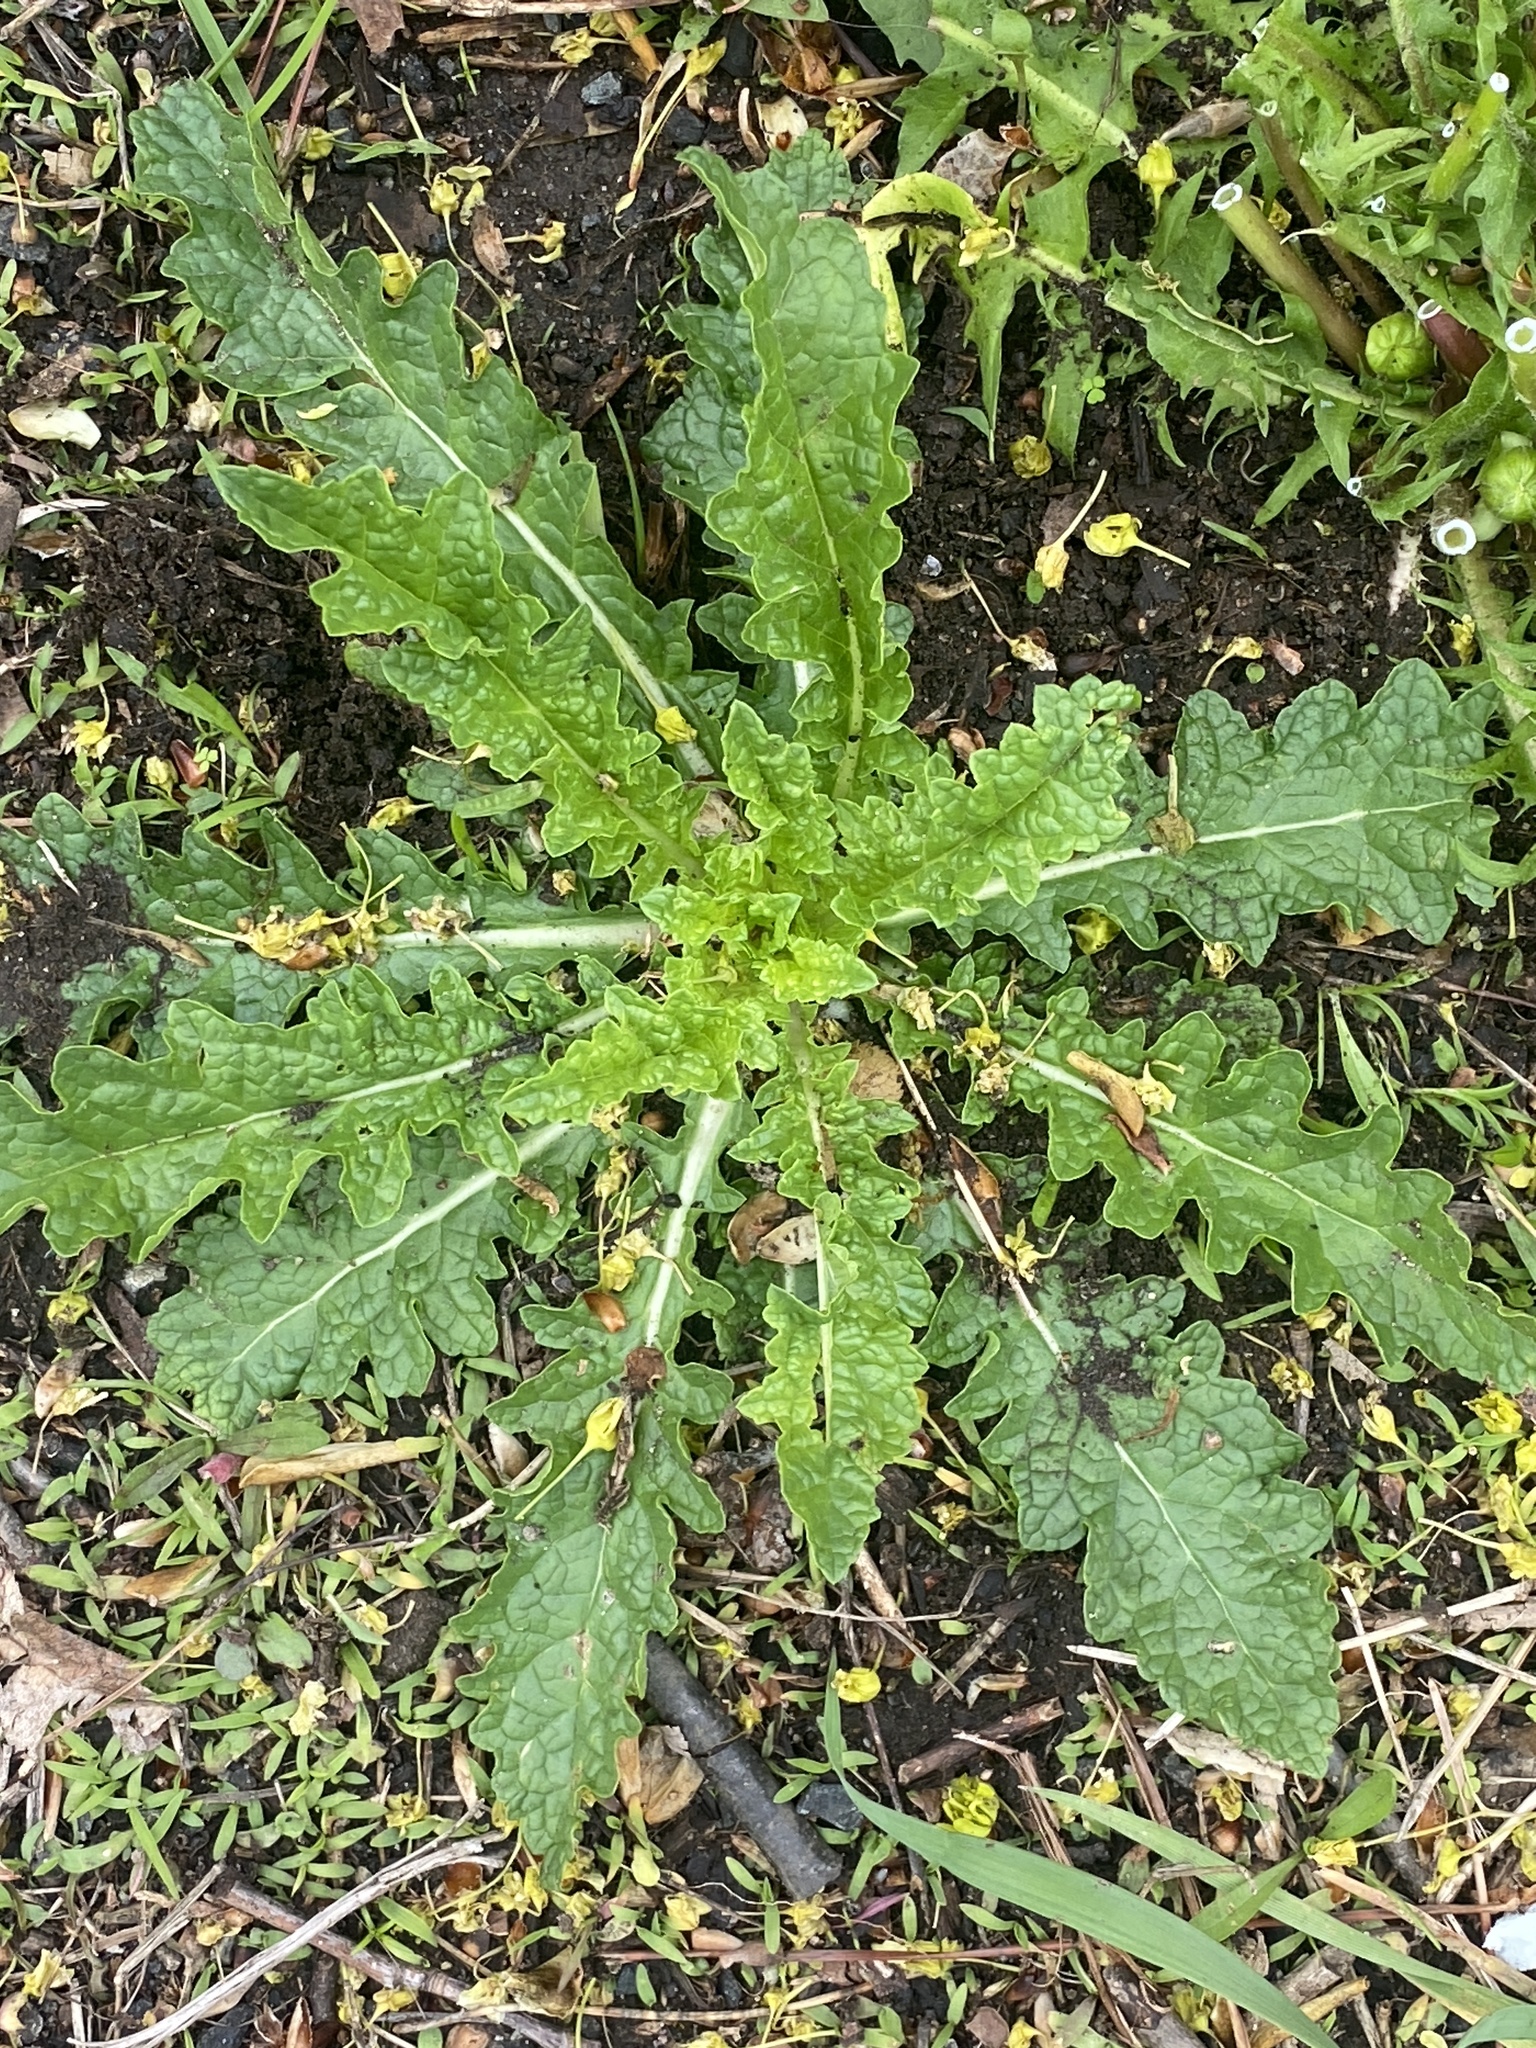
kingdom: Plantae
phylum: Tracheophyta
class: Magnoliopsida
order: Lamiales
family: Scrophulariaceae
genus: Verbascum
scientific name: Verbascum blattaria
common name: Moth mullein
